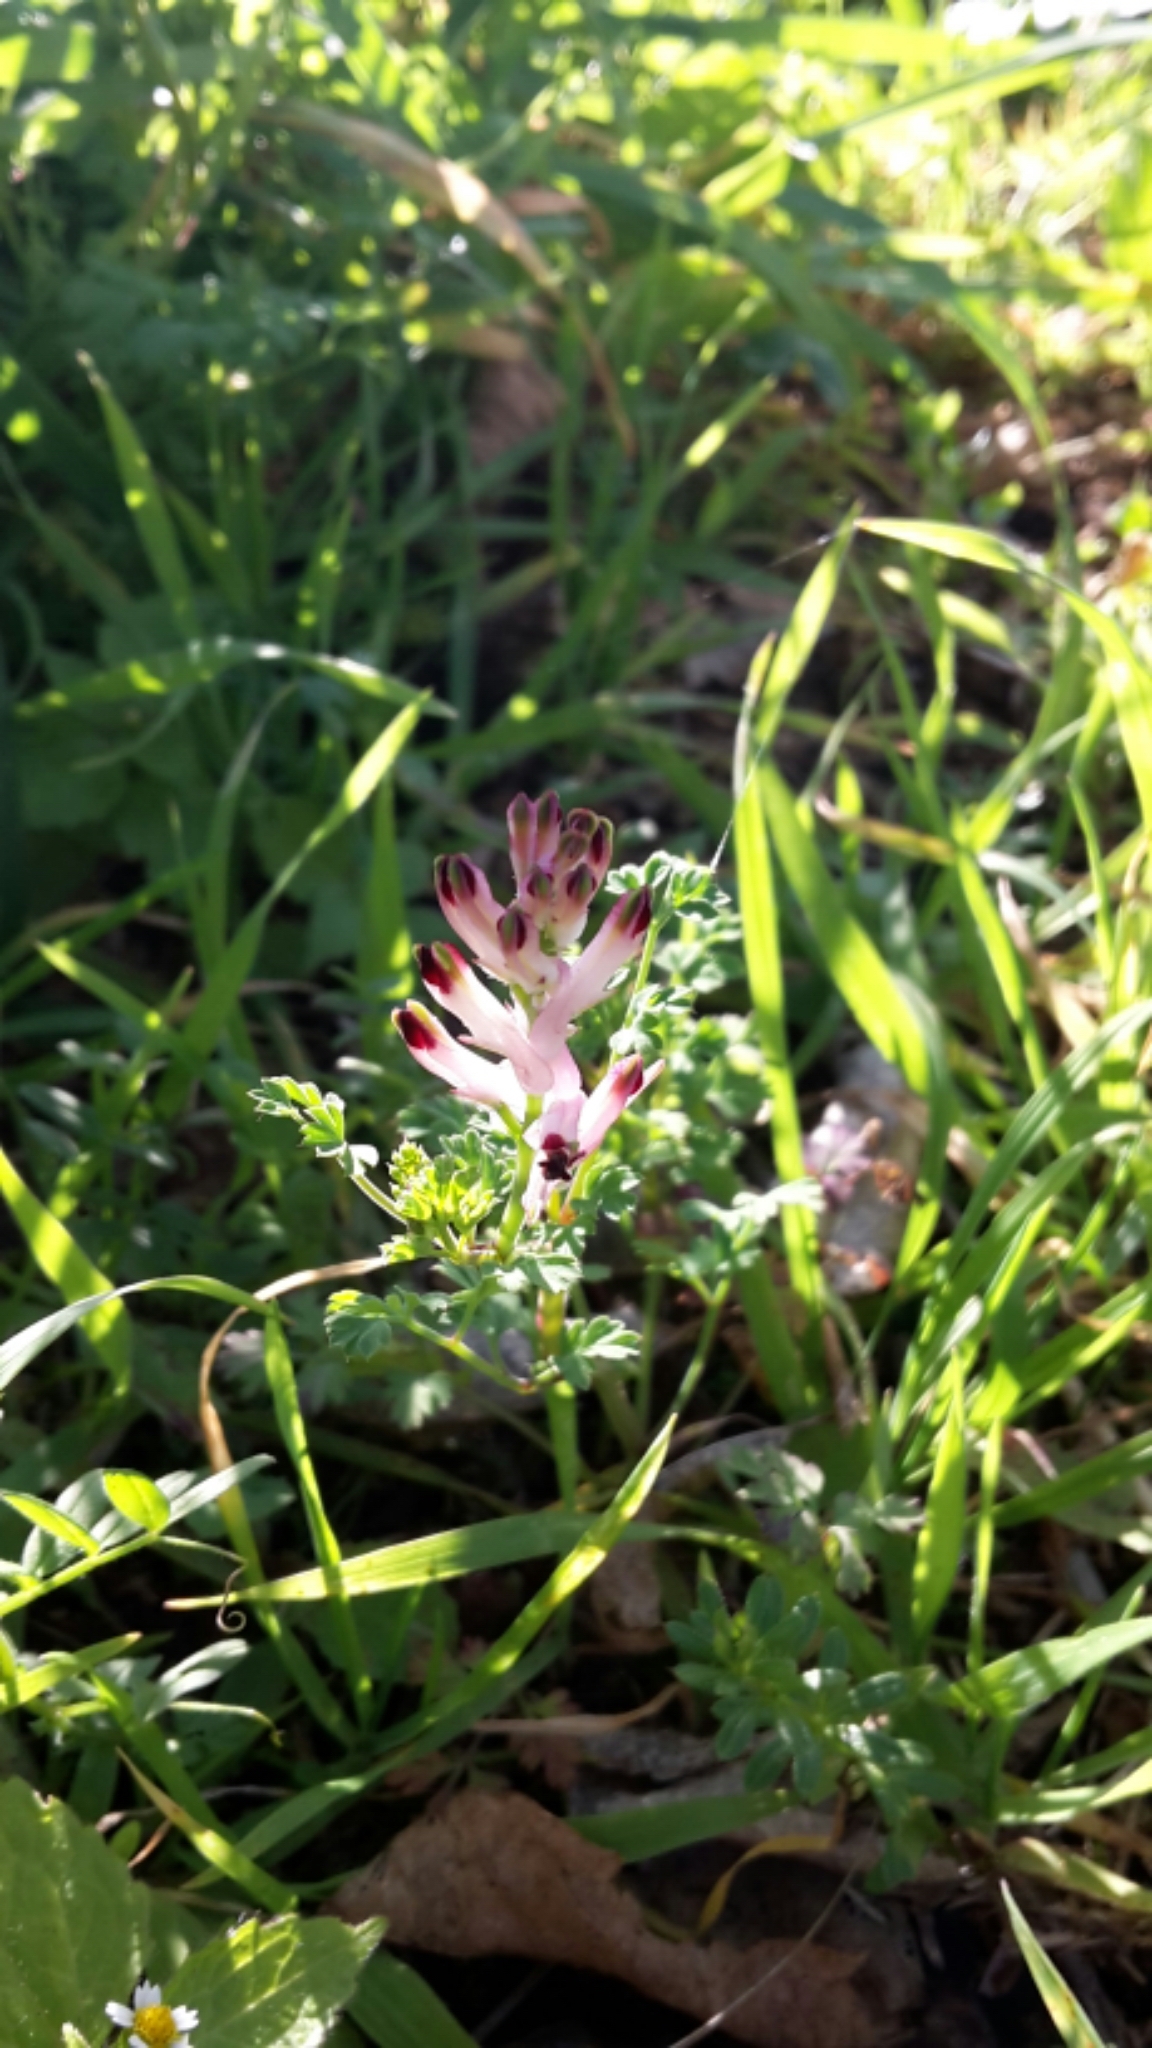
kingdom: Plantae
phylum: Tracheophyta
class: Magnoliopsida
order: Ranunculales
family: Papaveraceae
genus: Fumaria
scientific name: Fumaria muralis
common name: Common ramping-fumitory
